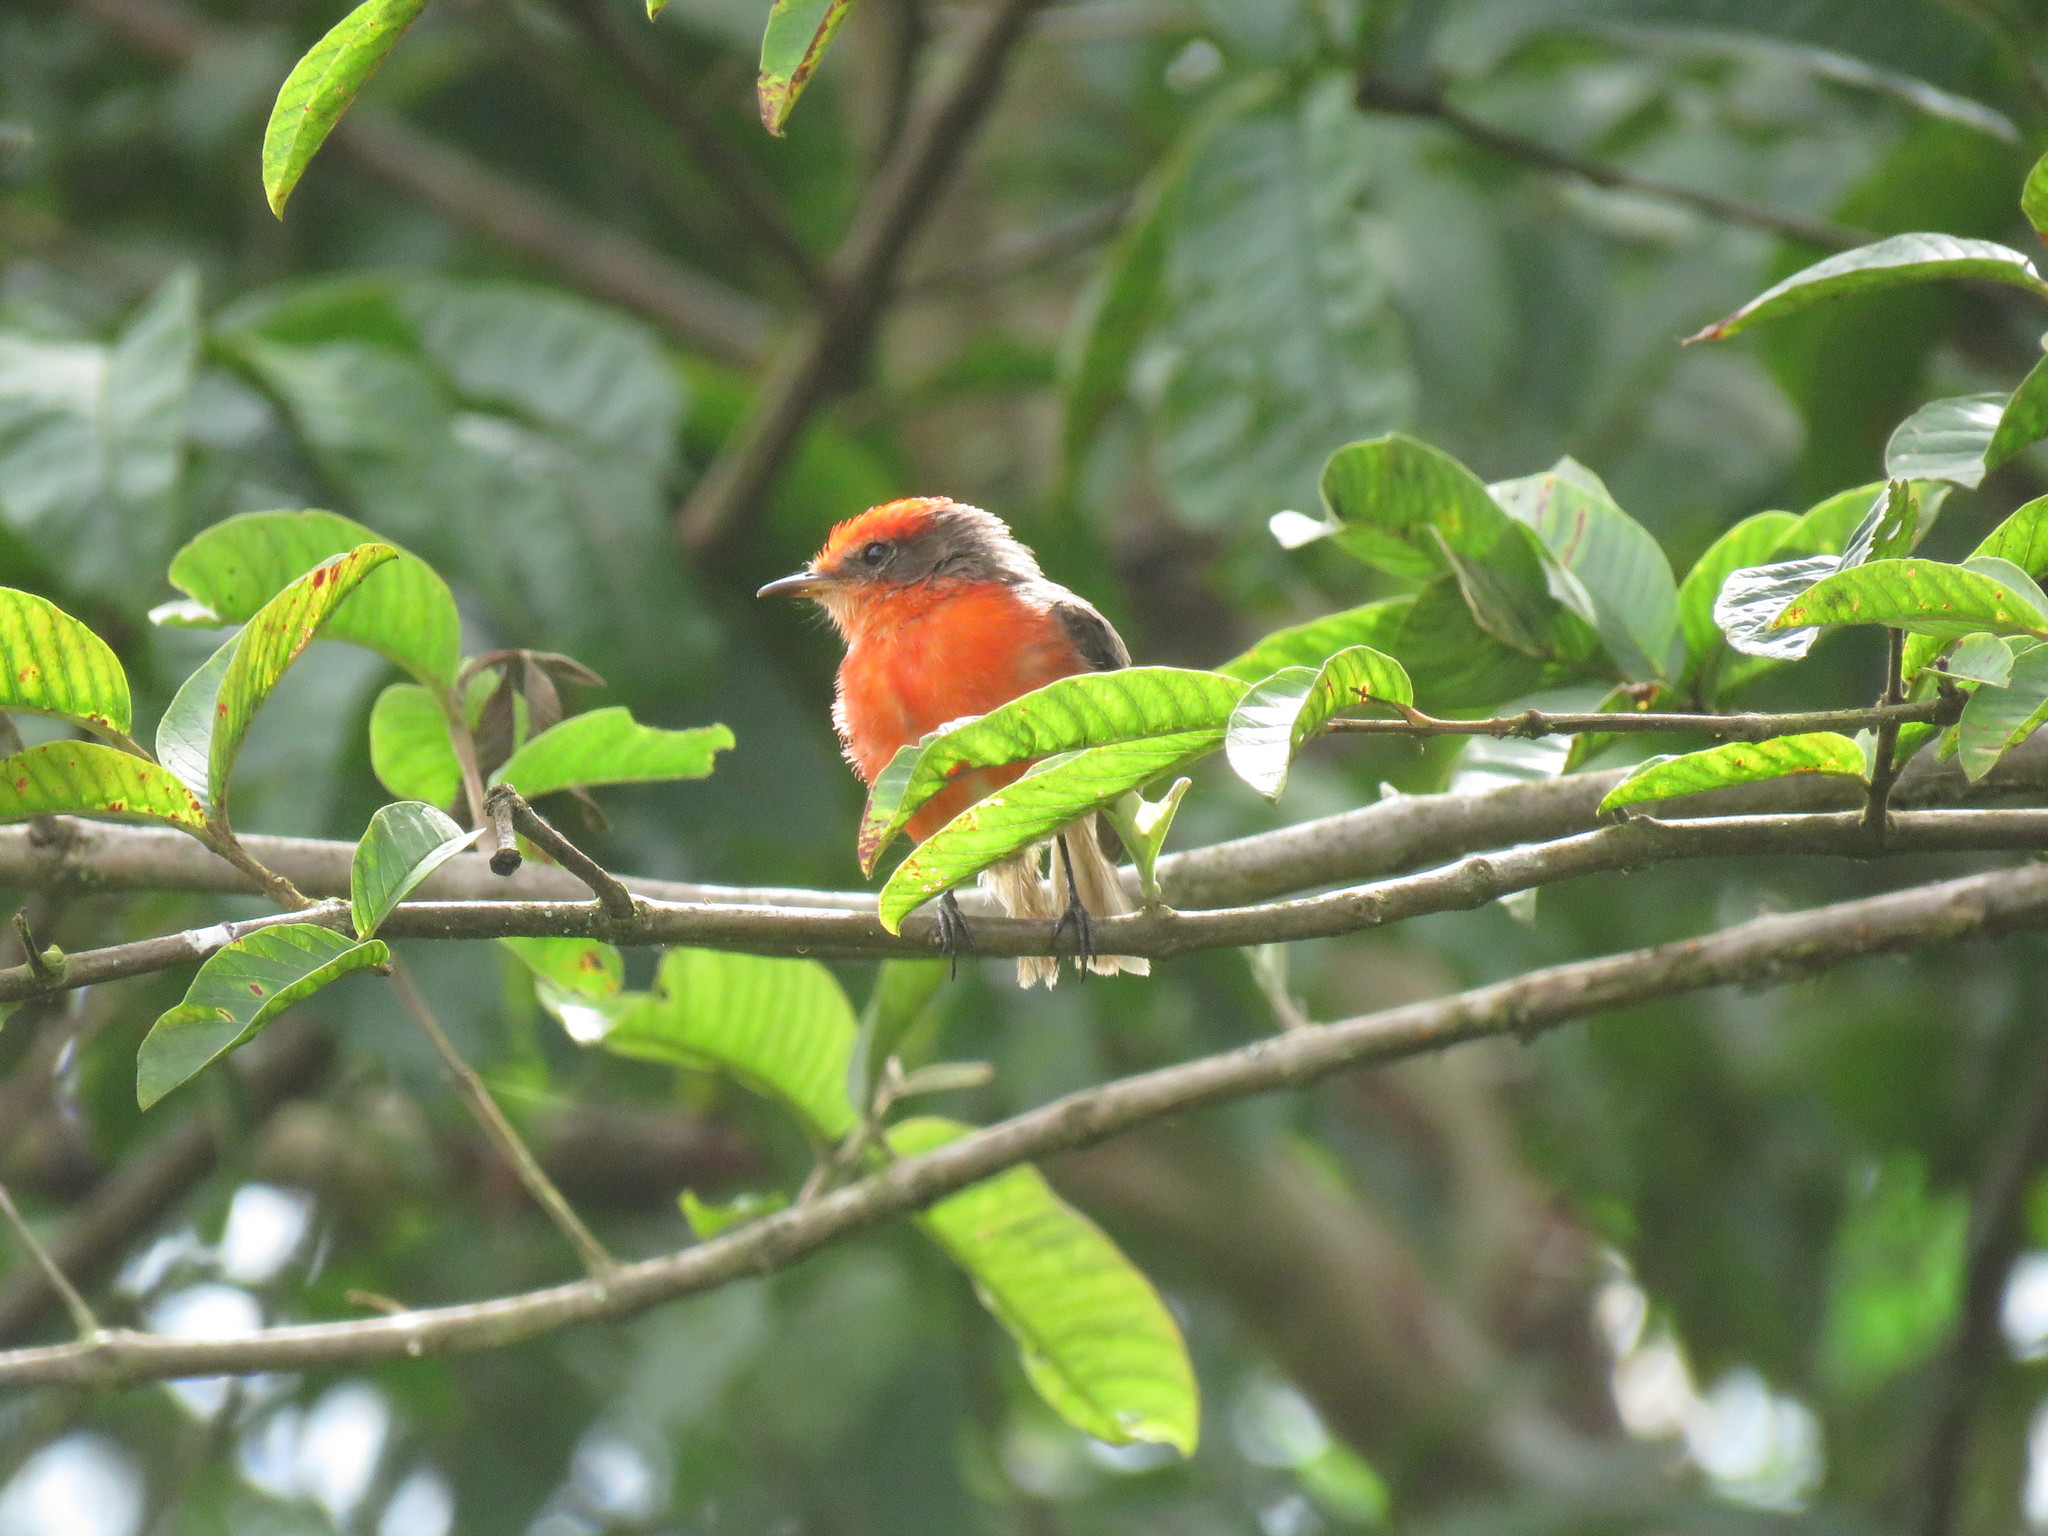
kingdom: Animalia
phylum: Chordata
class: Aves
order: Passeriformes
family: Tyrannidae
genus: Pyrocephalus
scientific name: Pyrocephalus rubinus
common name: Vermilion flycatcher
